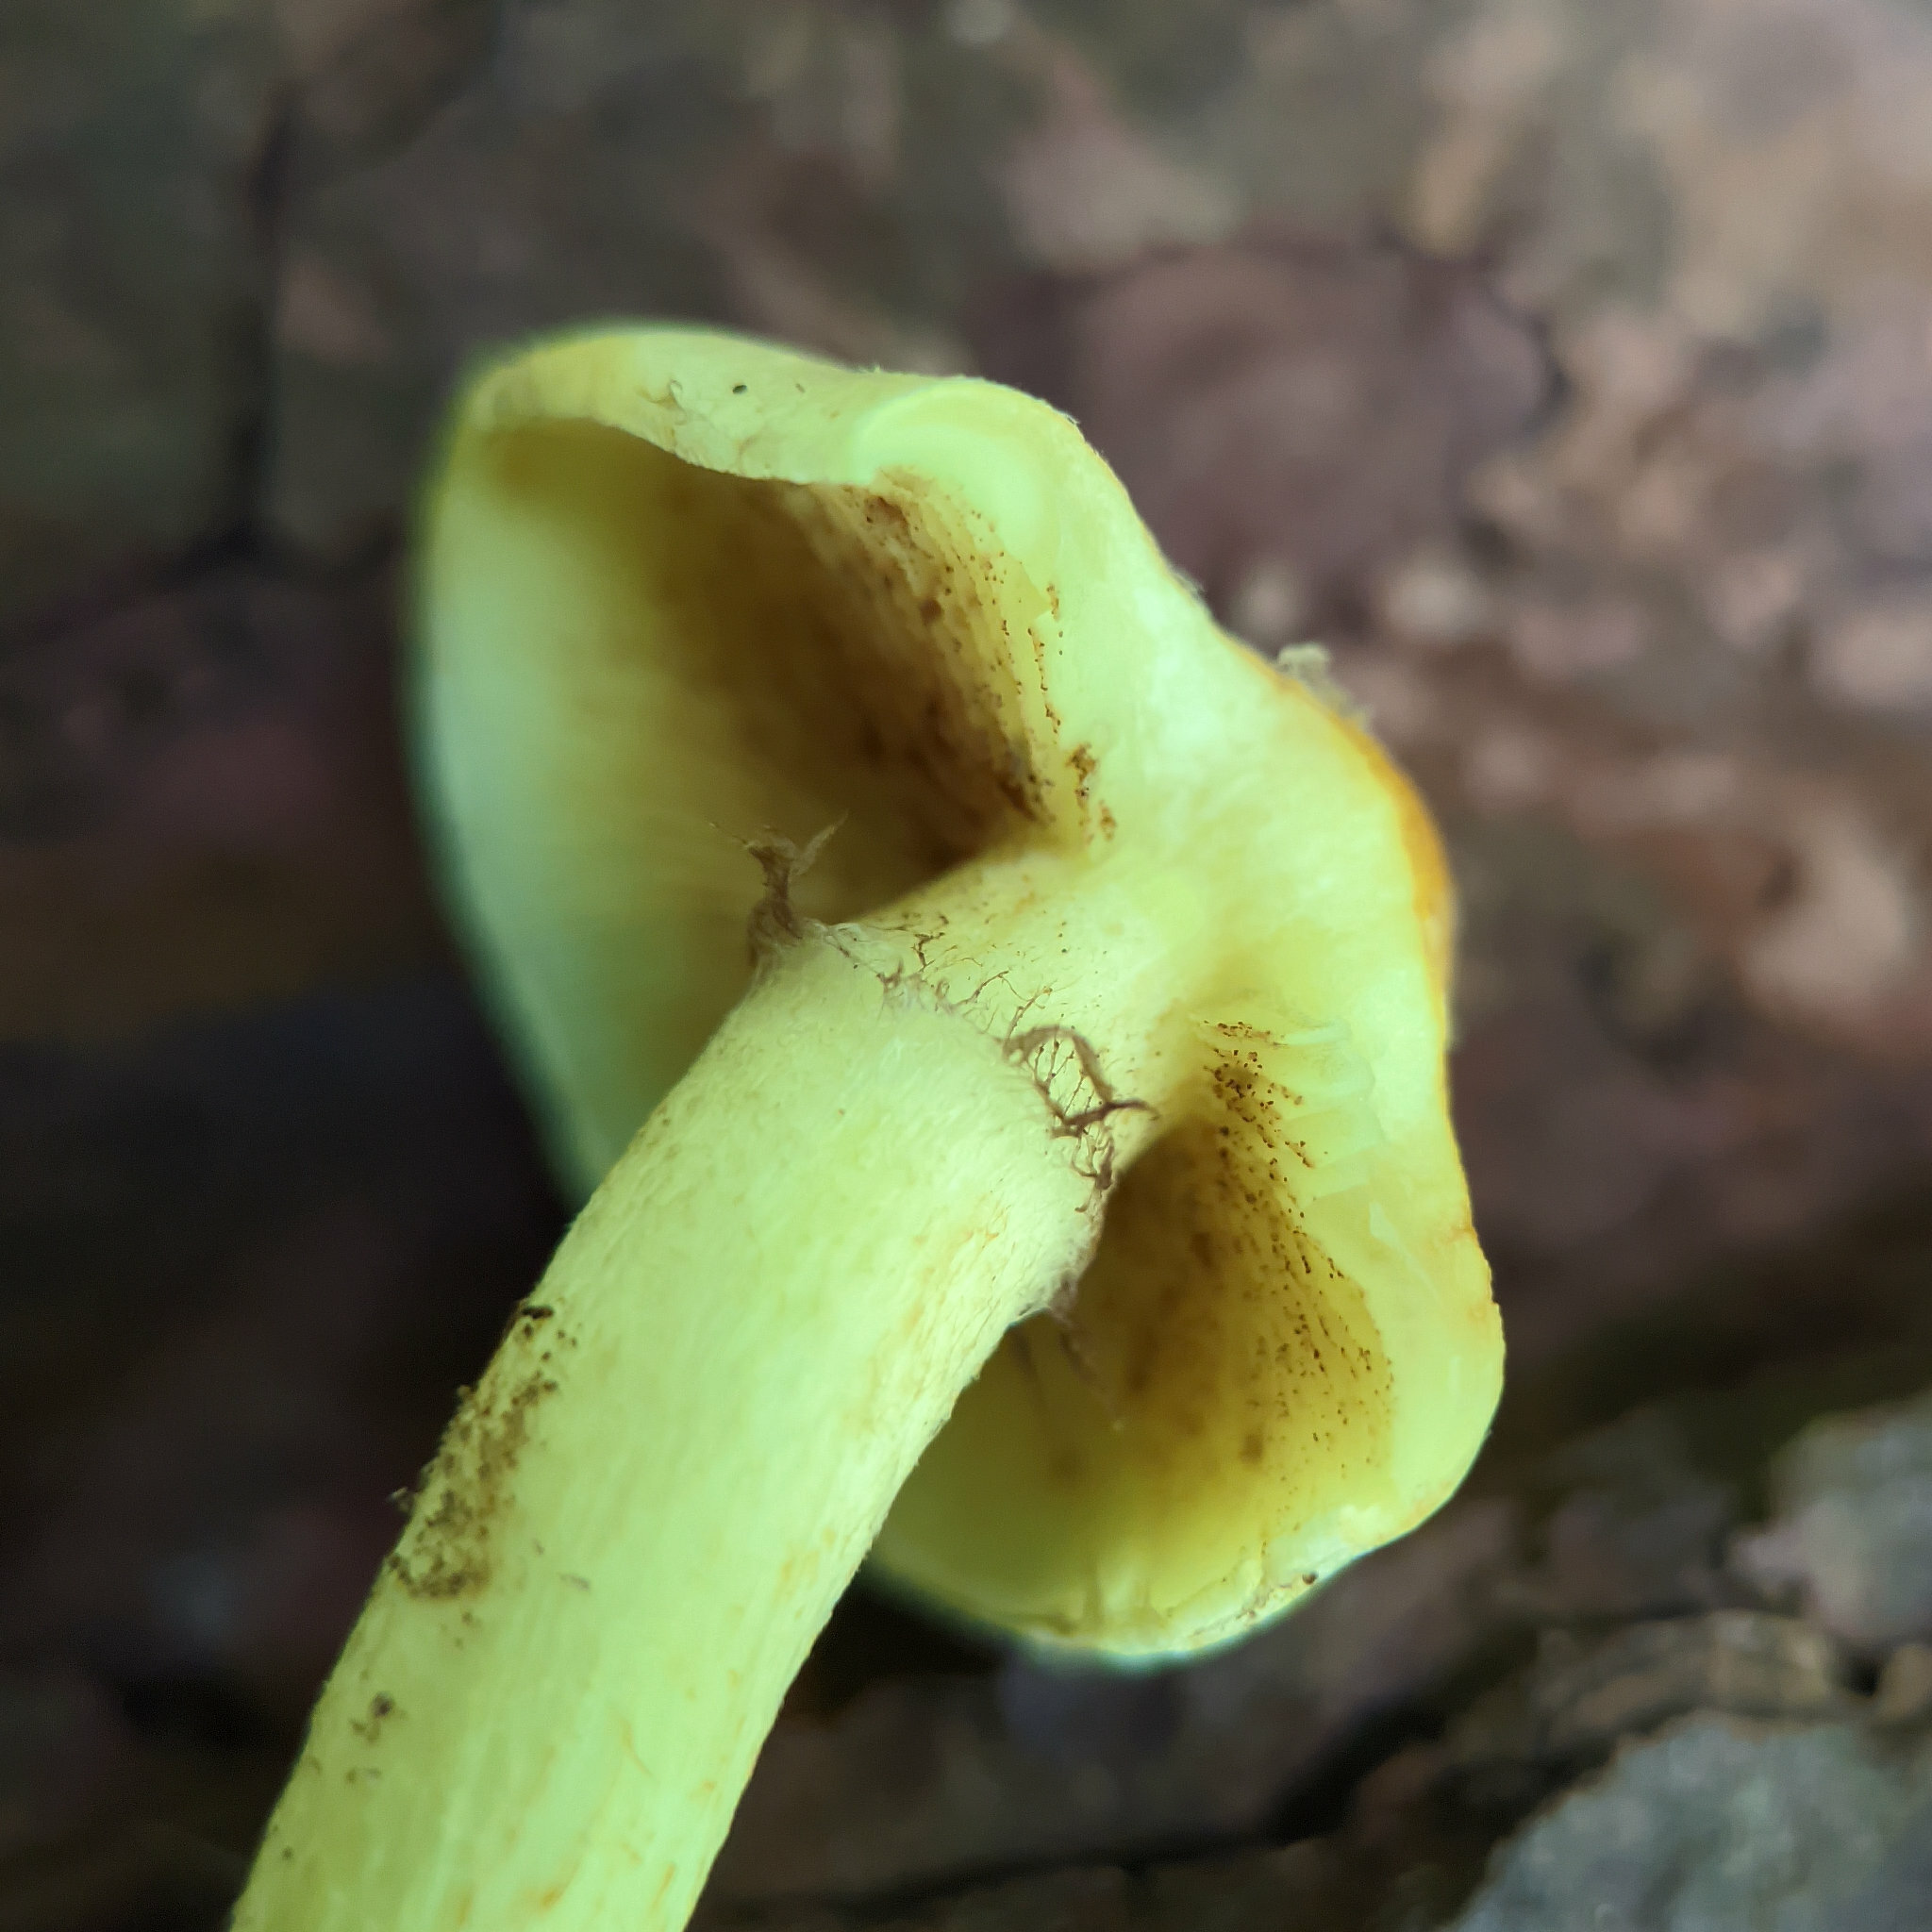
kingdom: Fungi
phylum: Basidiomycota
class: Agaricomycetes
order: Agaricales
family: Strophariaceae
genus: Hypholoma
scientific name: Hypholoma fasciculare
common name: Sulphur tuft
